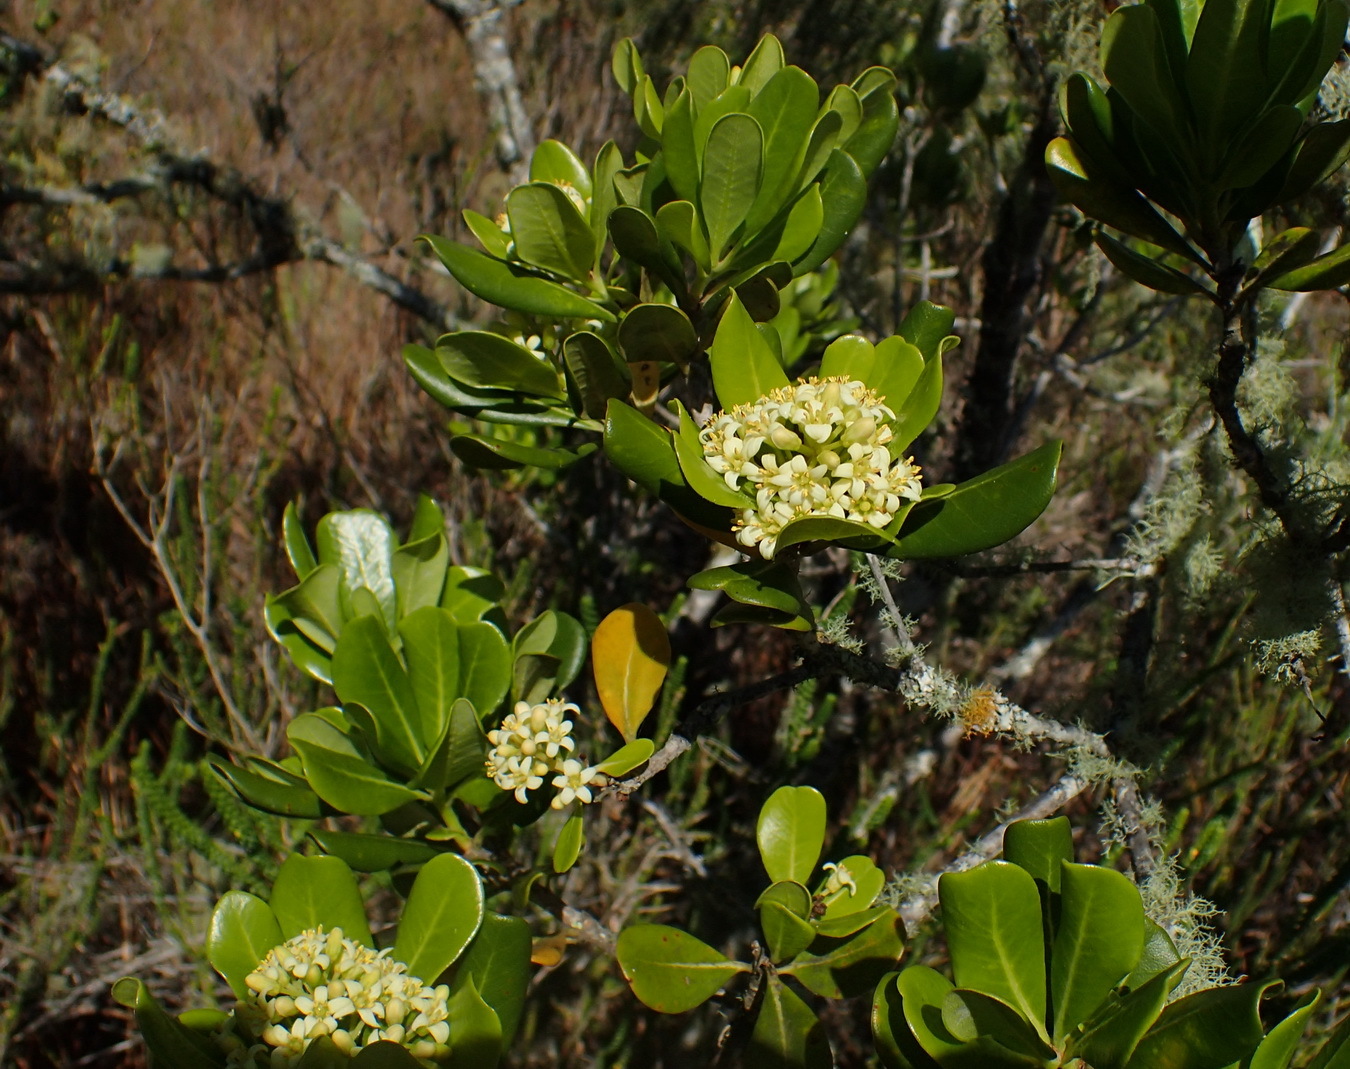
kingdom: Plantae
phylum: Tracheophyta
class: Magnoliopsida
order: Apiales
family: Pittosporaceae
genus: Pittosporum
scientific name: Pittosporum viridiflorum
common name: Cape cheesewood
